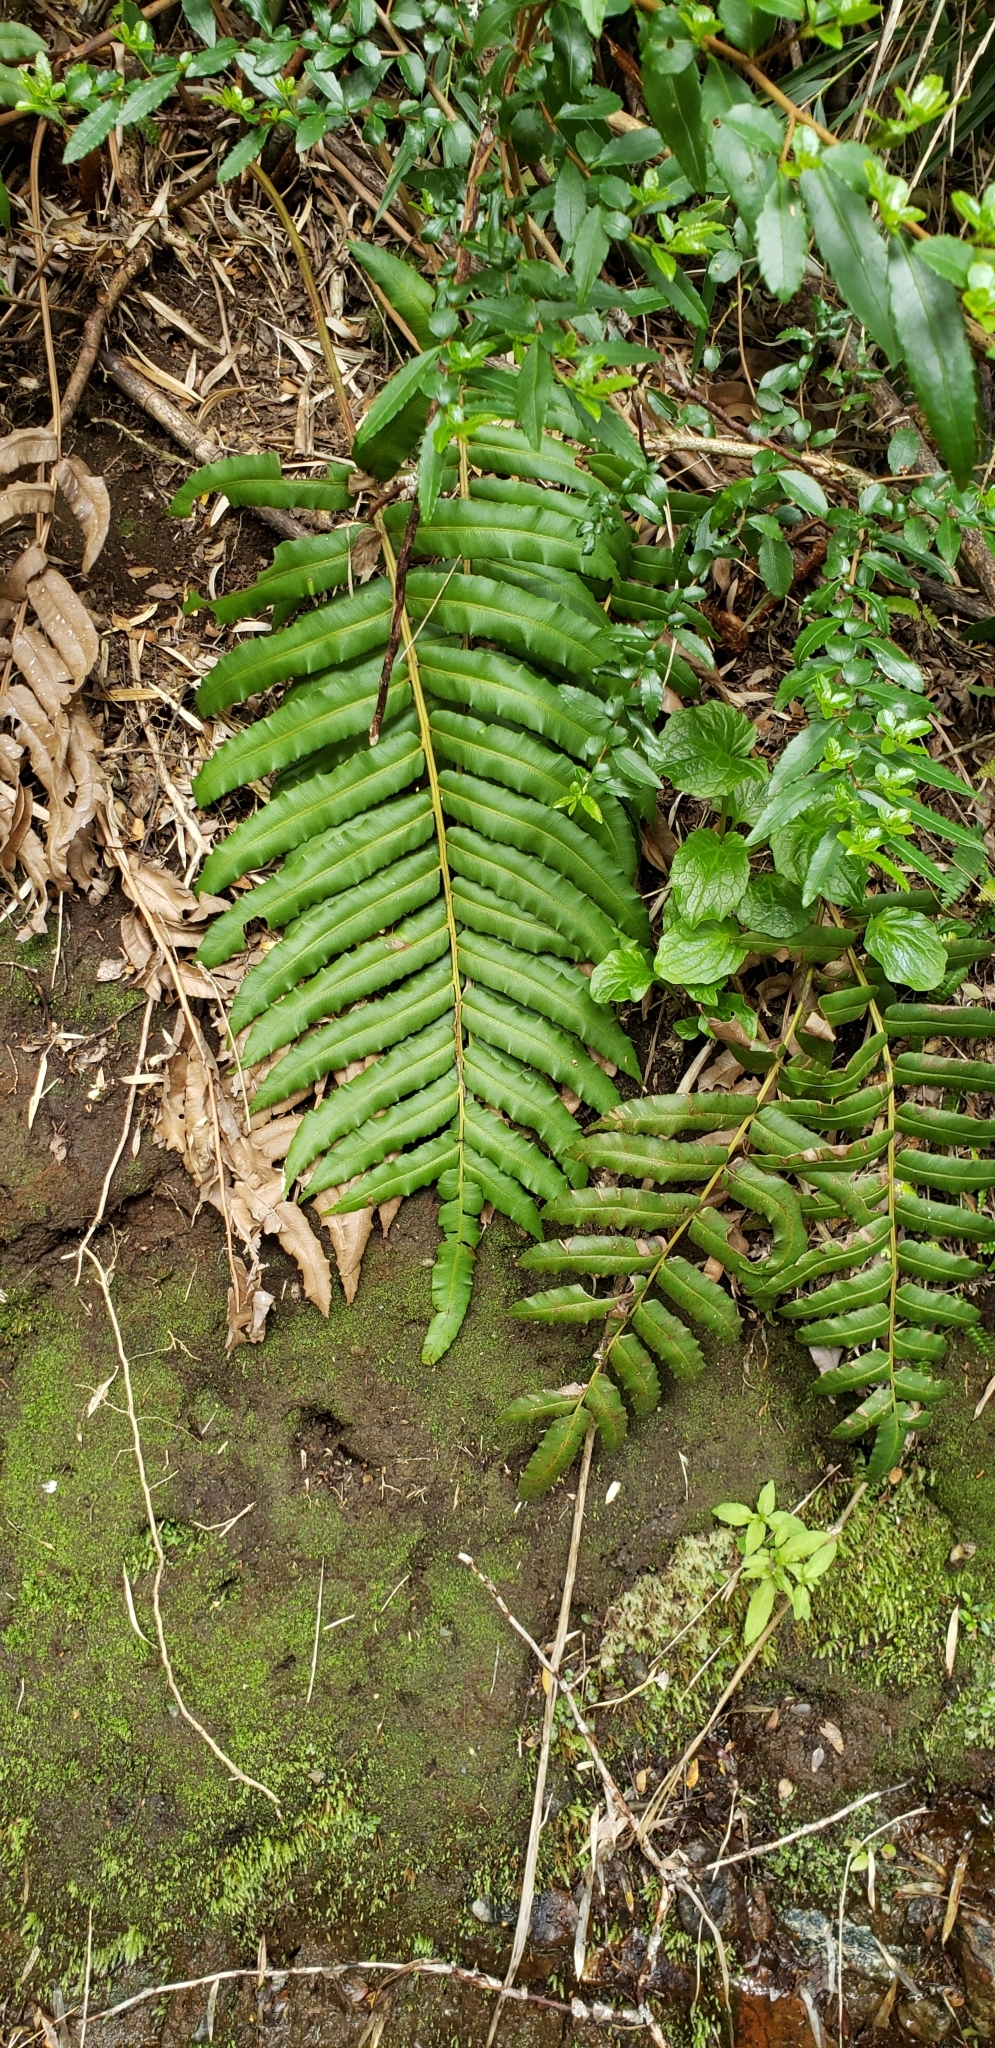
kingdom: Plantae
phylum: Tracheophyta
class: Polypodiopsida
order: Polypodiales
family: Blechnaceae
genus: Parablechnum
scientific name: Parablechnum chilense
